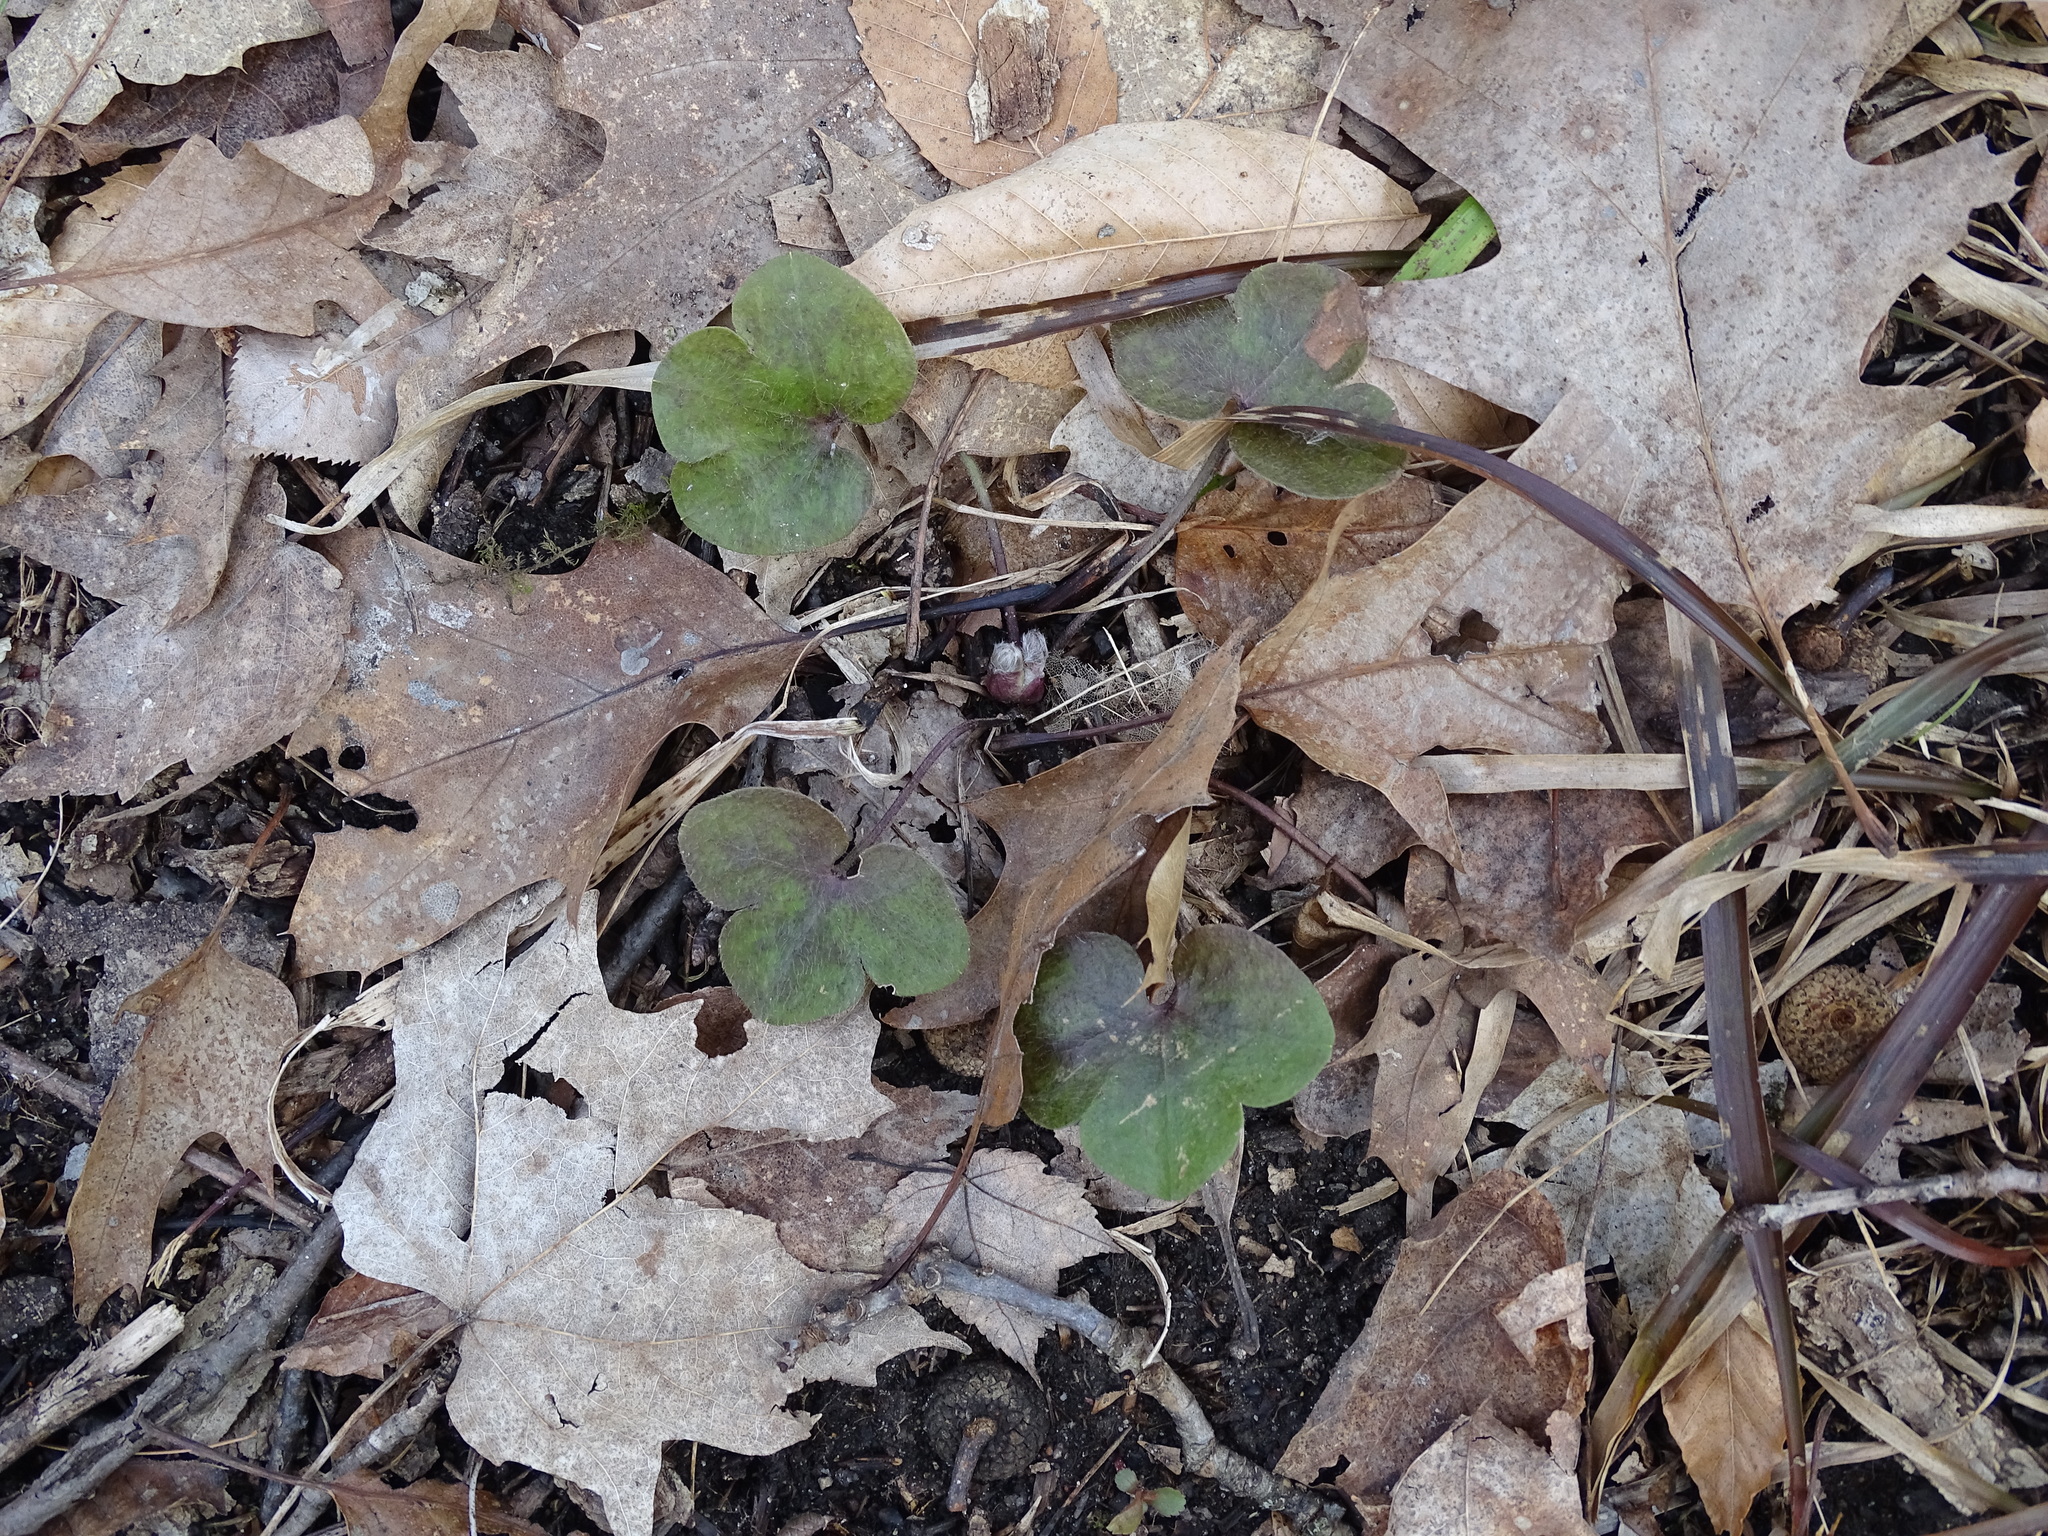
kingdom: Plantae
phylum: Tracheophyta
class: Magnoliopsida
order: Ranunculales
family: Ranunculaceae
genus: Hepatica
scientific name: Hepatica americana
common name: American hepatica
